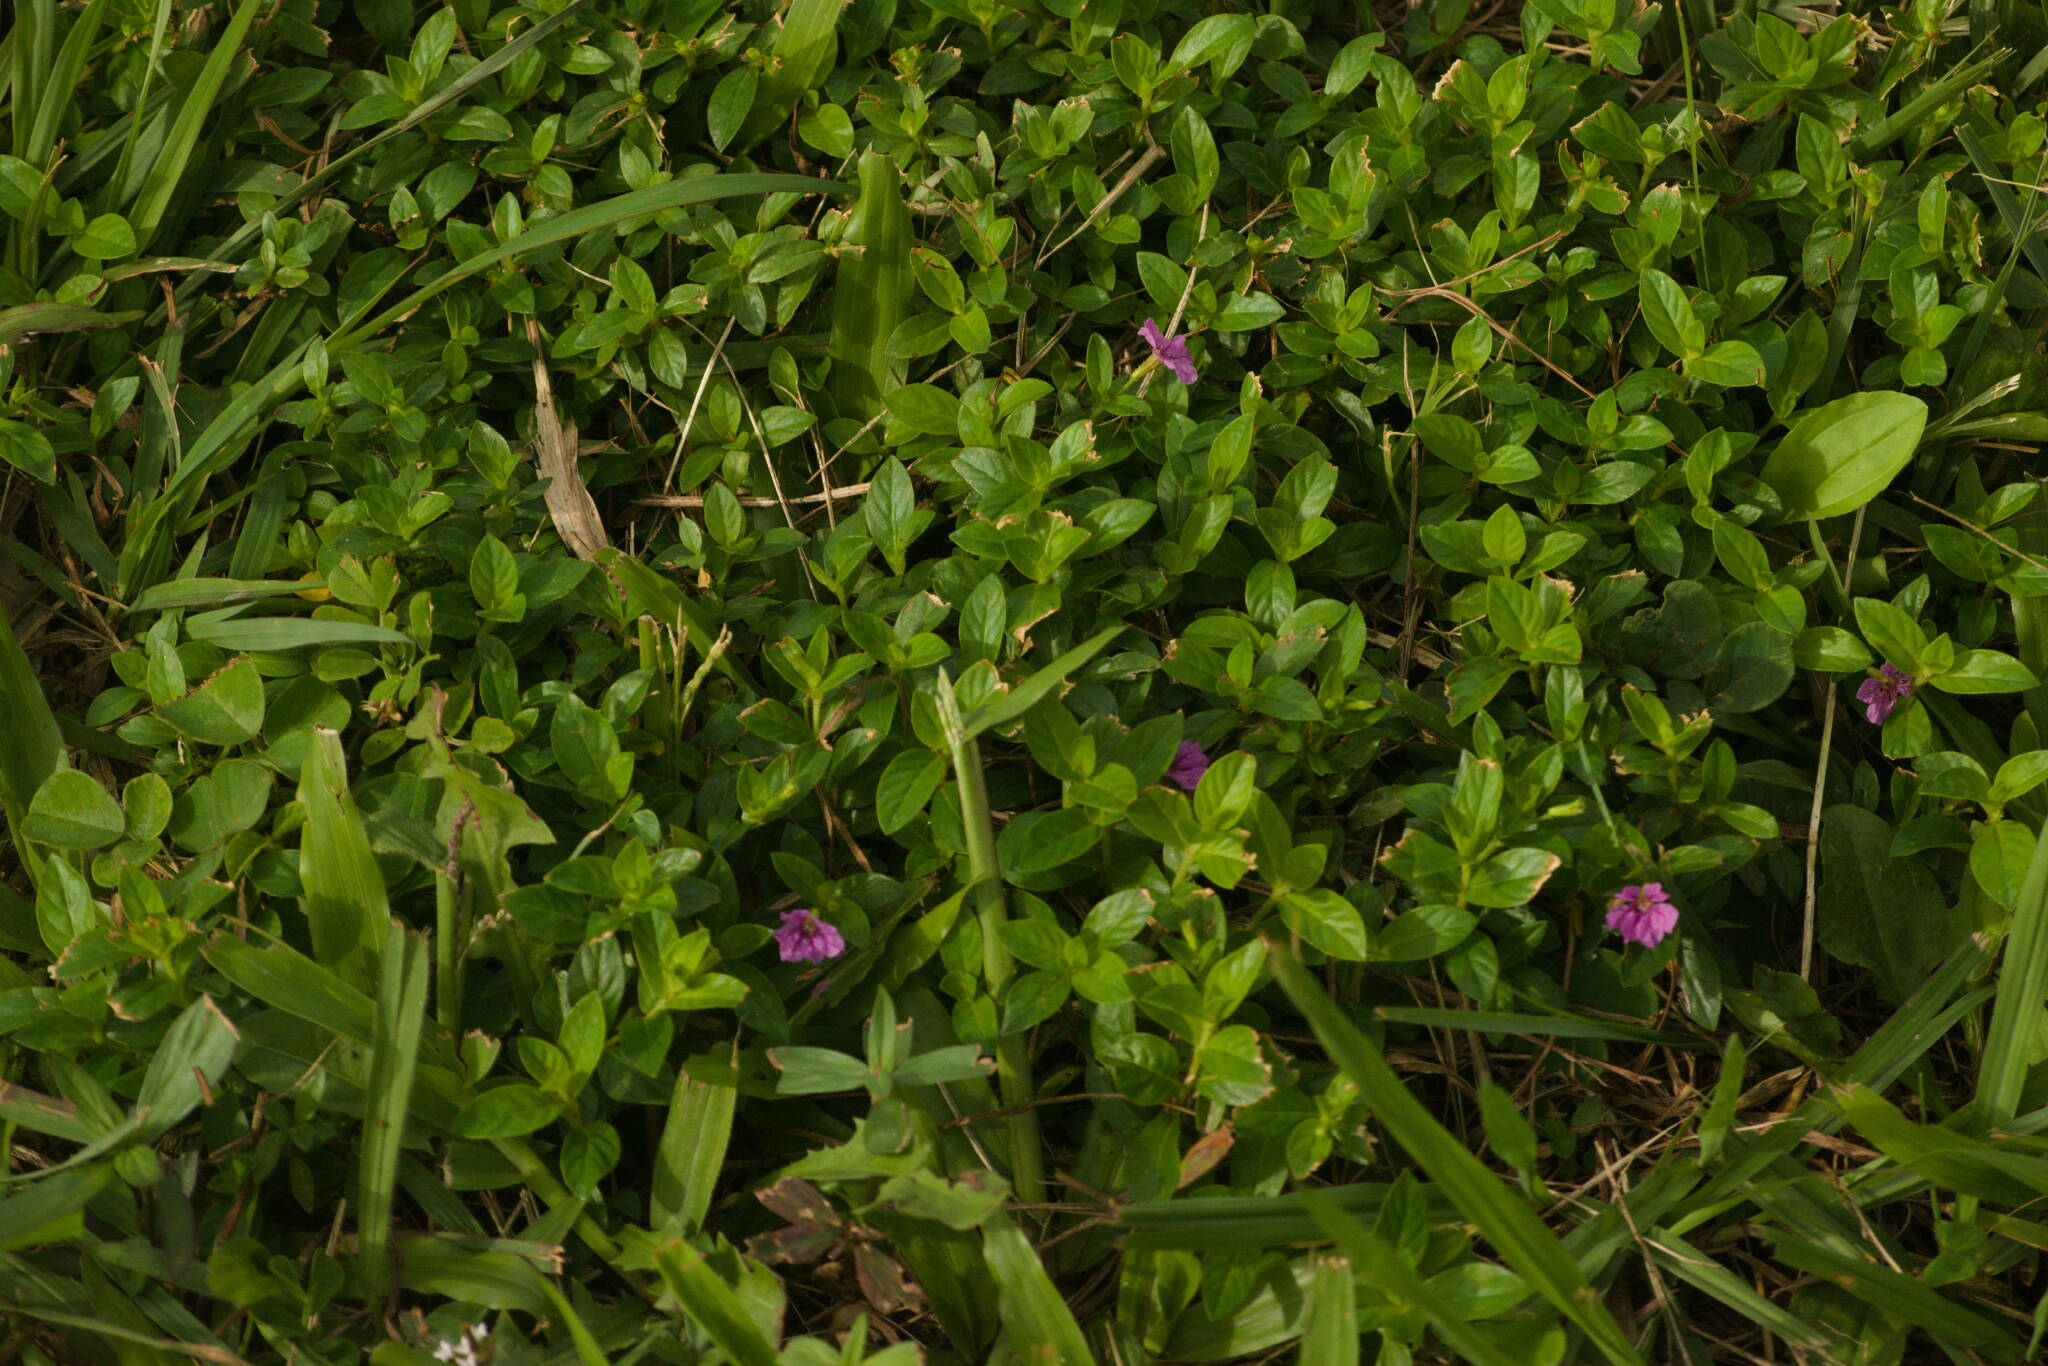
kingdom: Plantae
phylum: Tracheophyta
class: Magnoliopsida
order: Myrtales
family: Lythraceae
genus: Cuphea
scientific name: Cuphea hyssopifolia
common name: False heather
